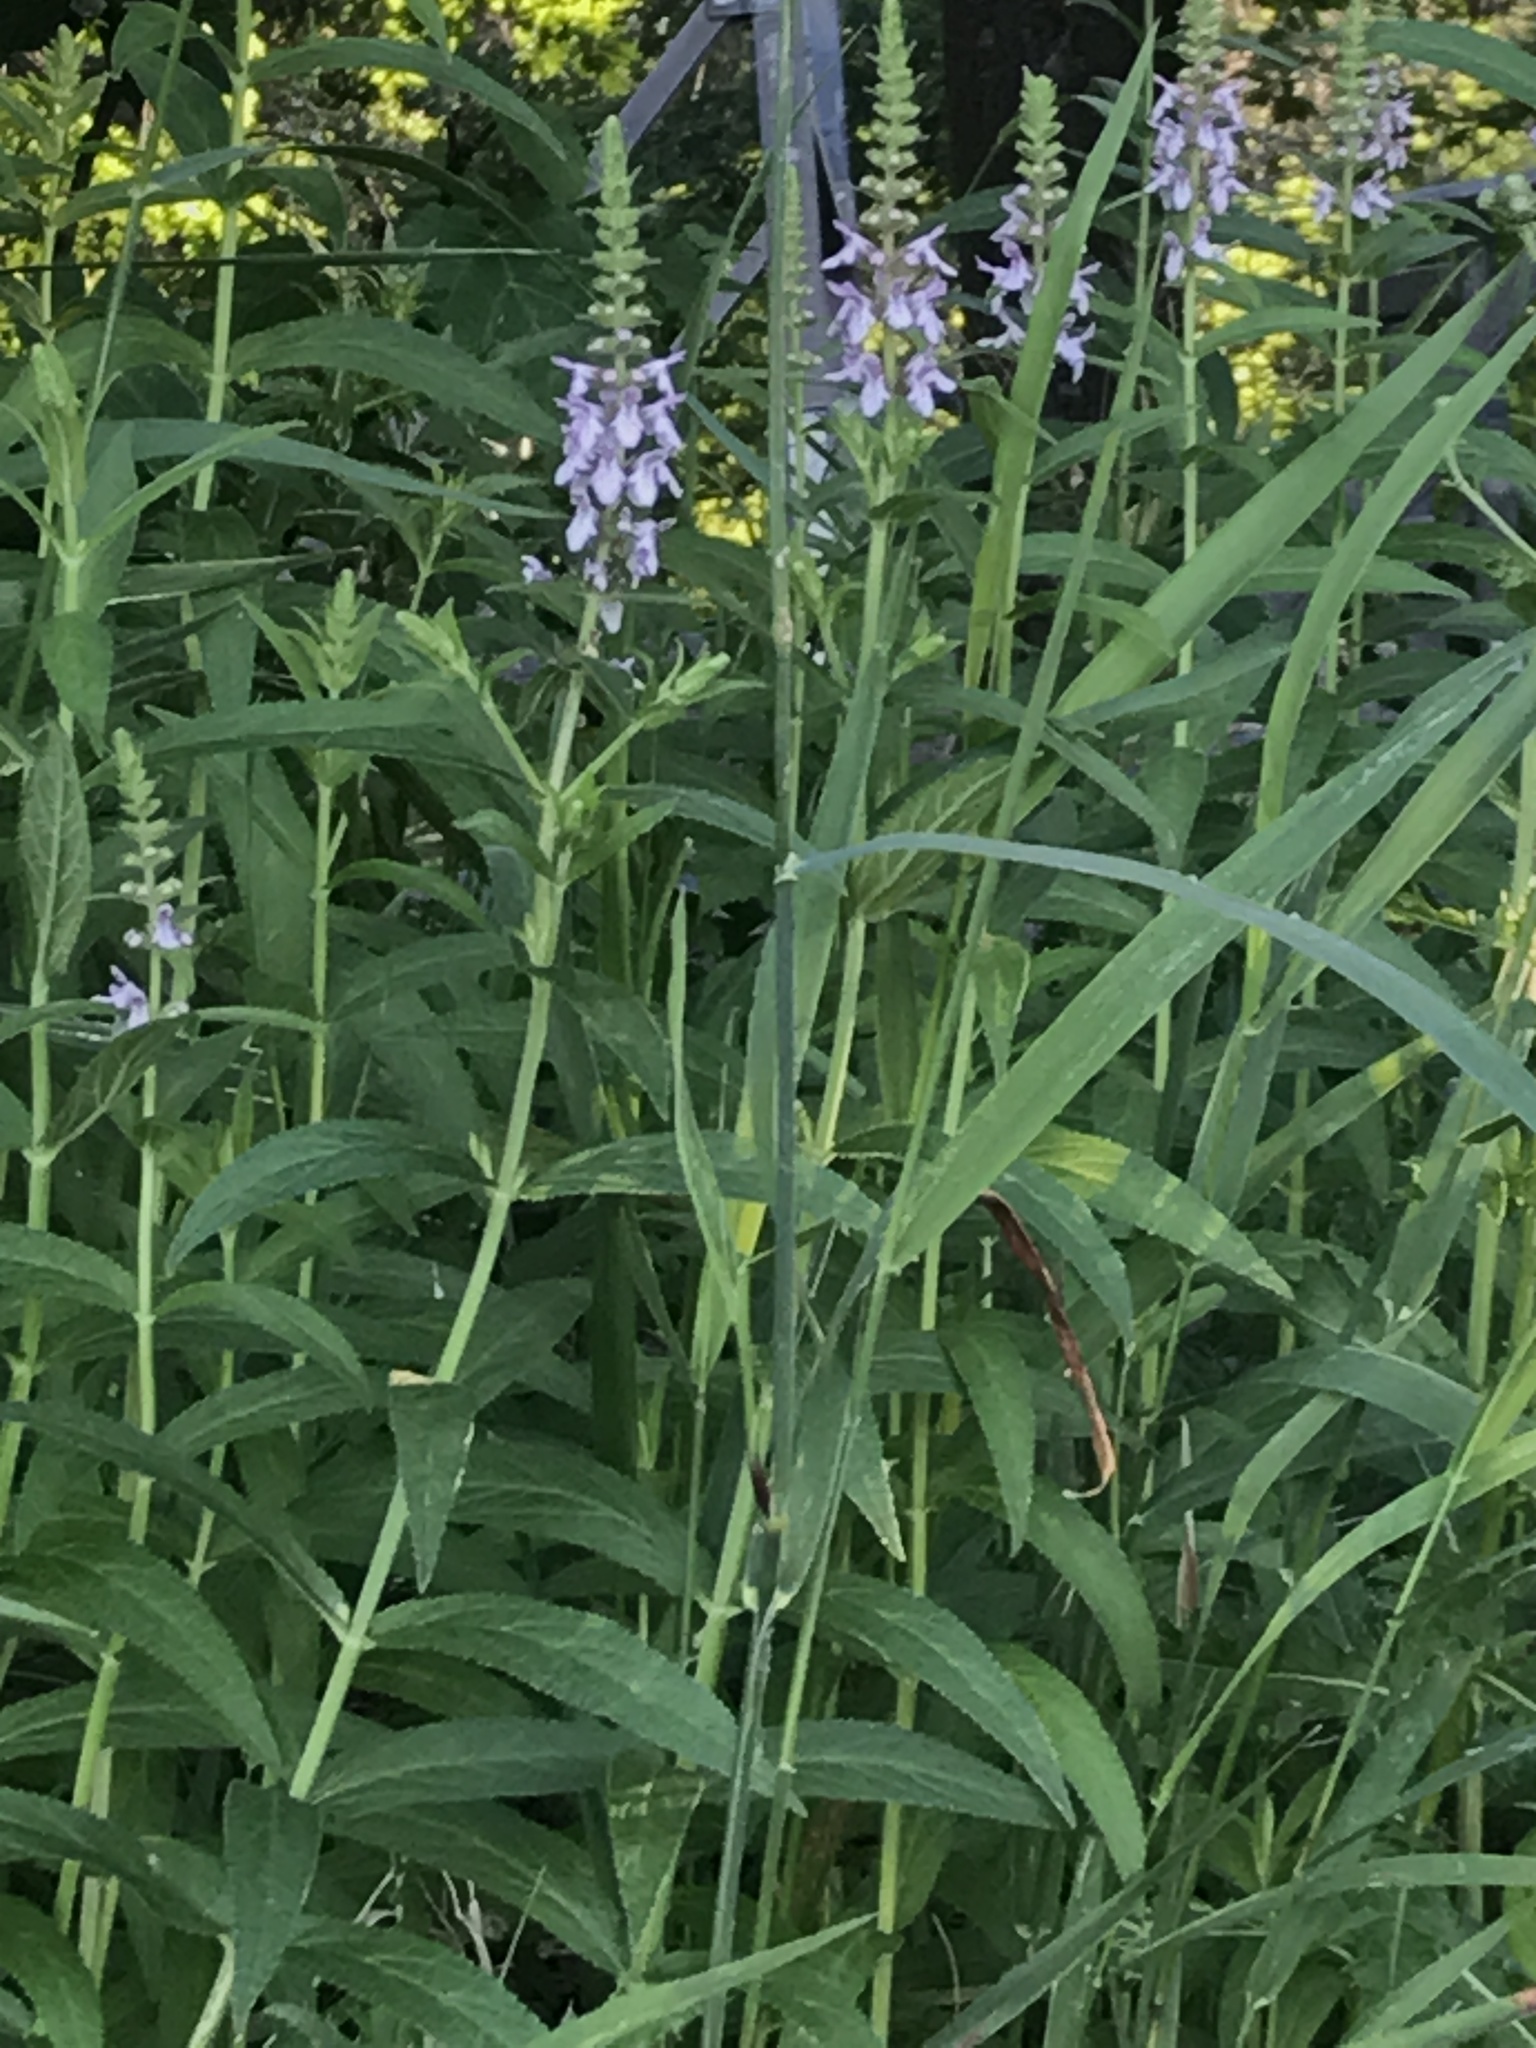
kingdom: Plantae
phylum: Tracheophyta
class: Magnoliopsida
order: Lamiales
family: Lamiaceae
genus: Stachys
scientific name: Stachys hispida
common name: Hispid hedge-nettle
